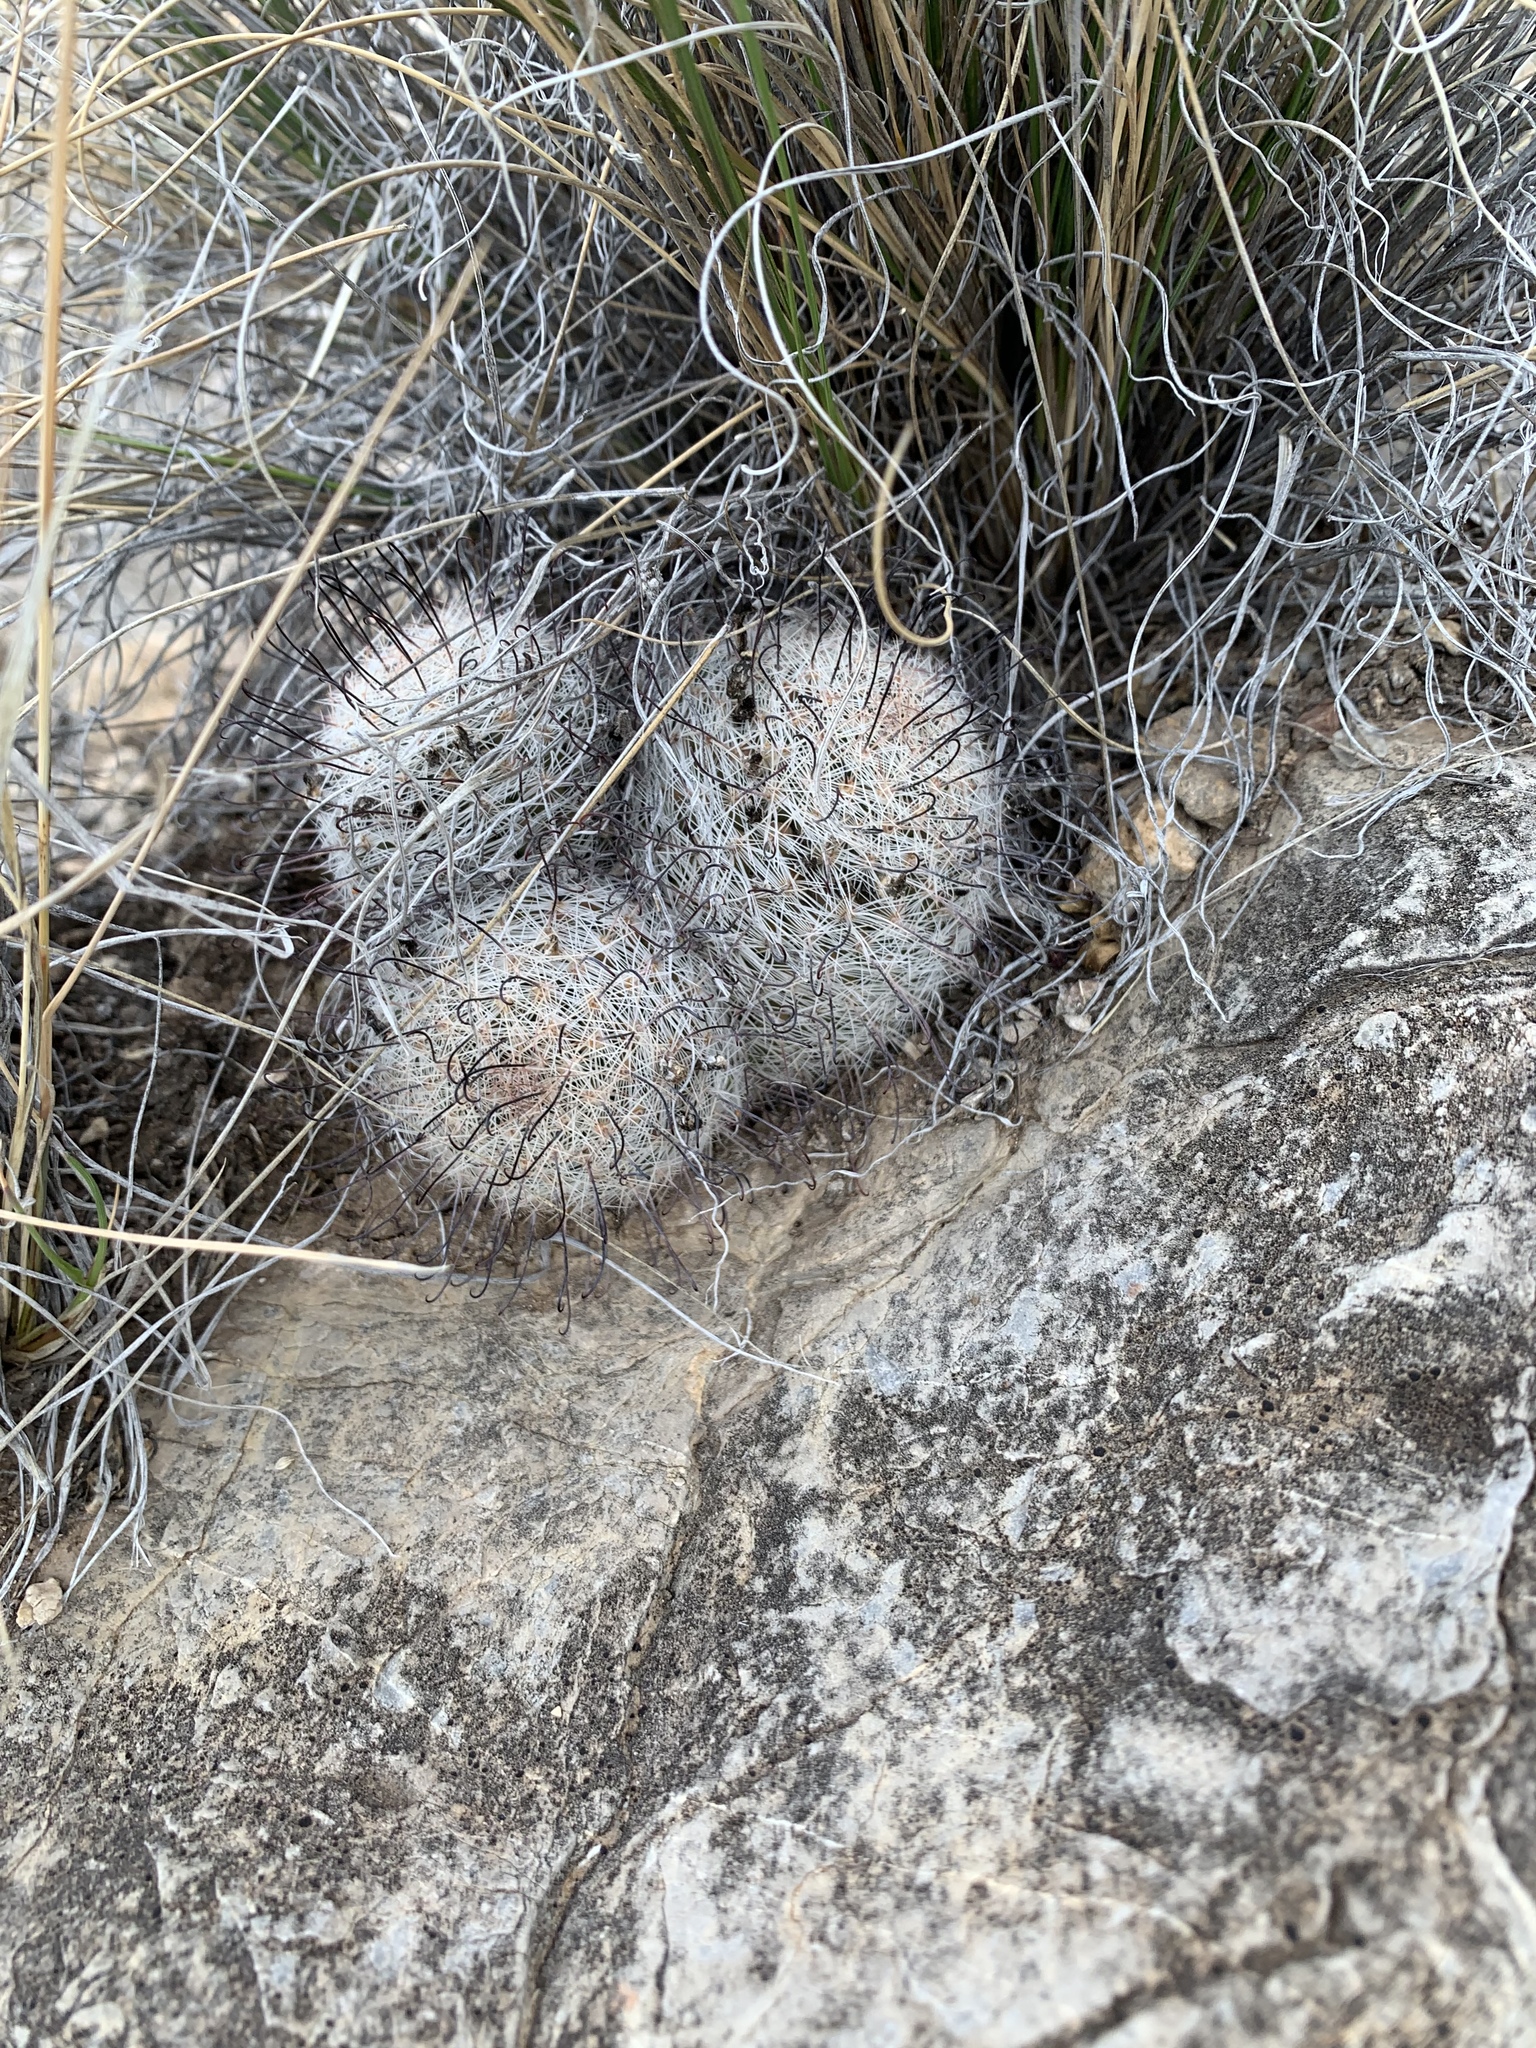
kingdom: Plantae
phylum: Tracheophyta
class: Magnoliopsida
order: Caryophyllales
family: Cactaceae
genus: Cochemiea
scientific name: Cochemiea grahamii
